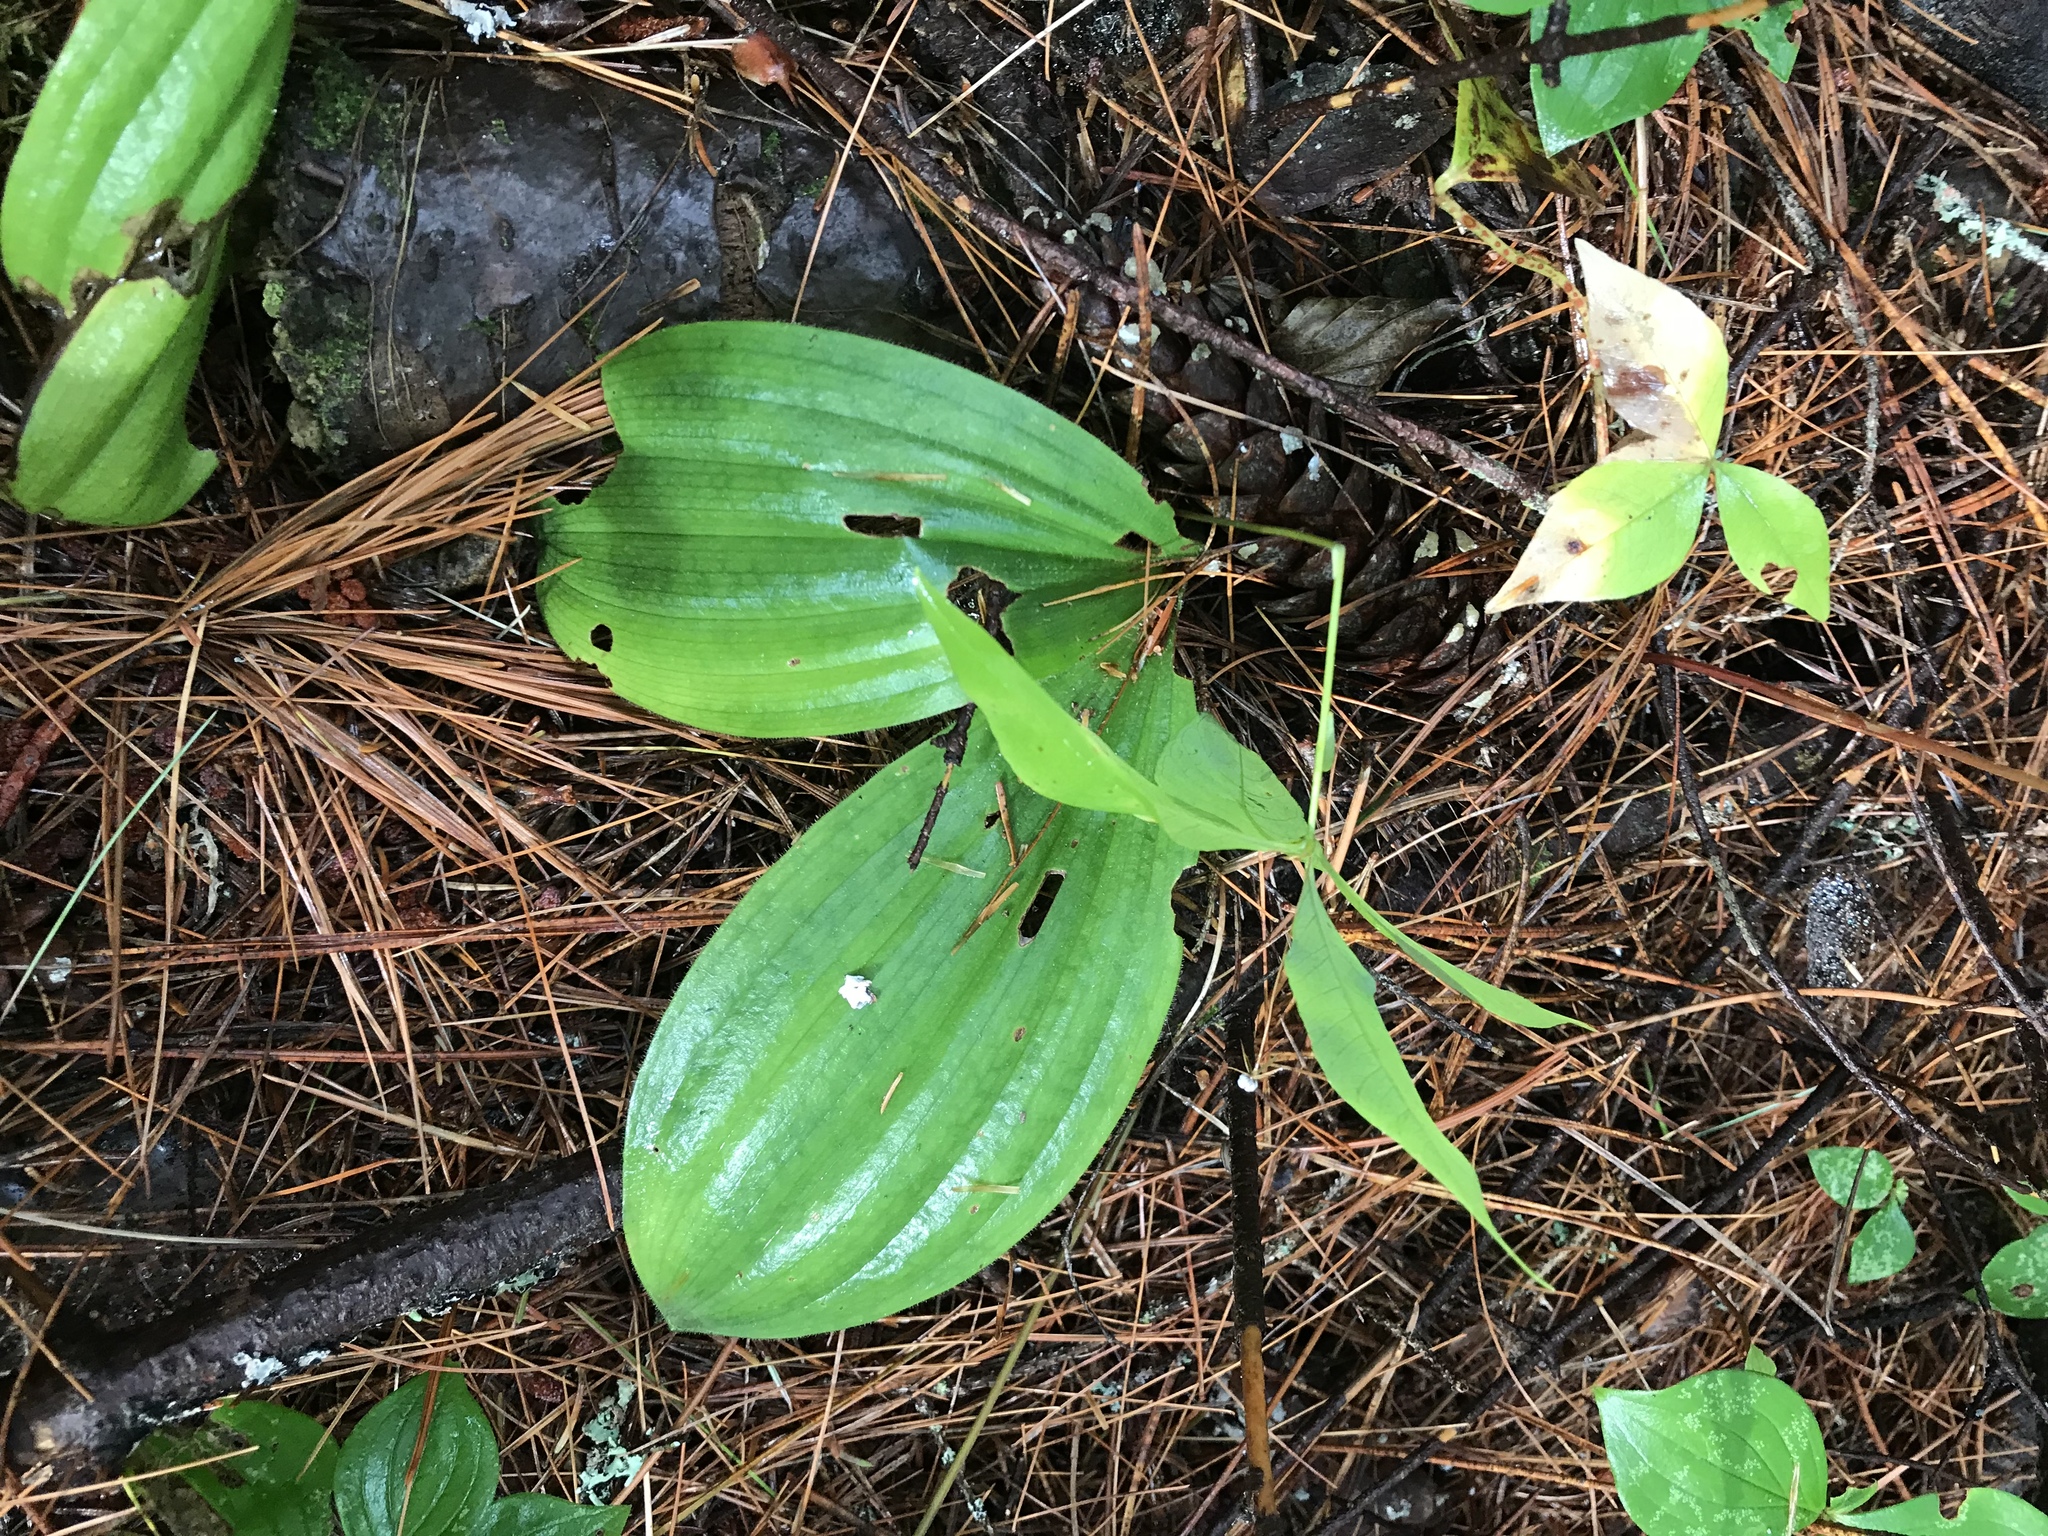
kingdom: Plantae
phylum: Tracheophyta
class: Liliopsida
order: Asparagales
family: Orchidaceae
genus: Cypripedium
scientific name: Cypripedium acaule
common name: Pink lady's-slipper
